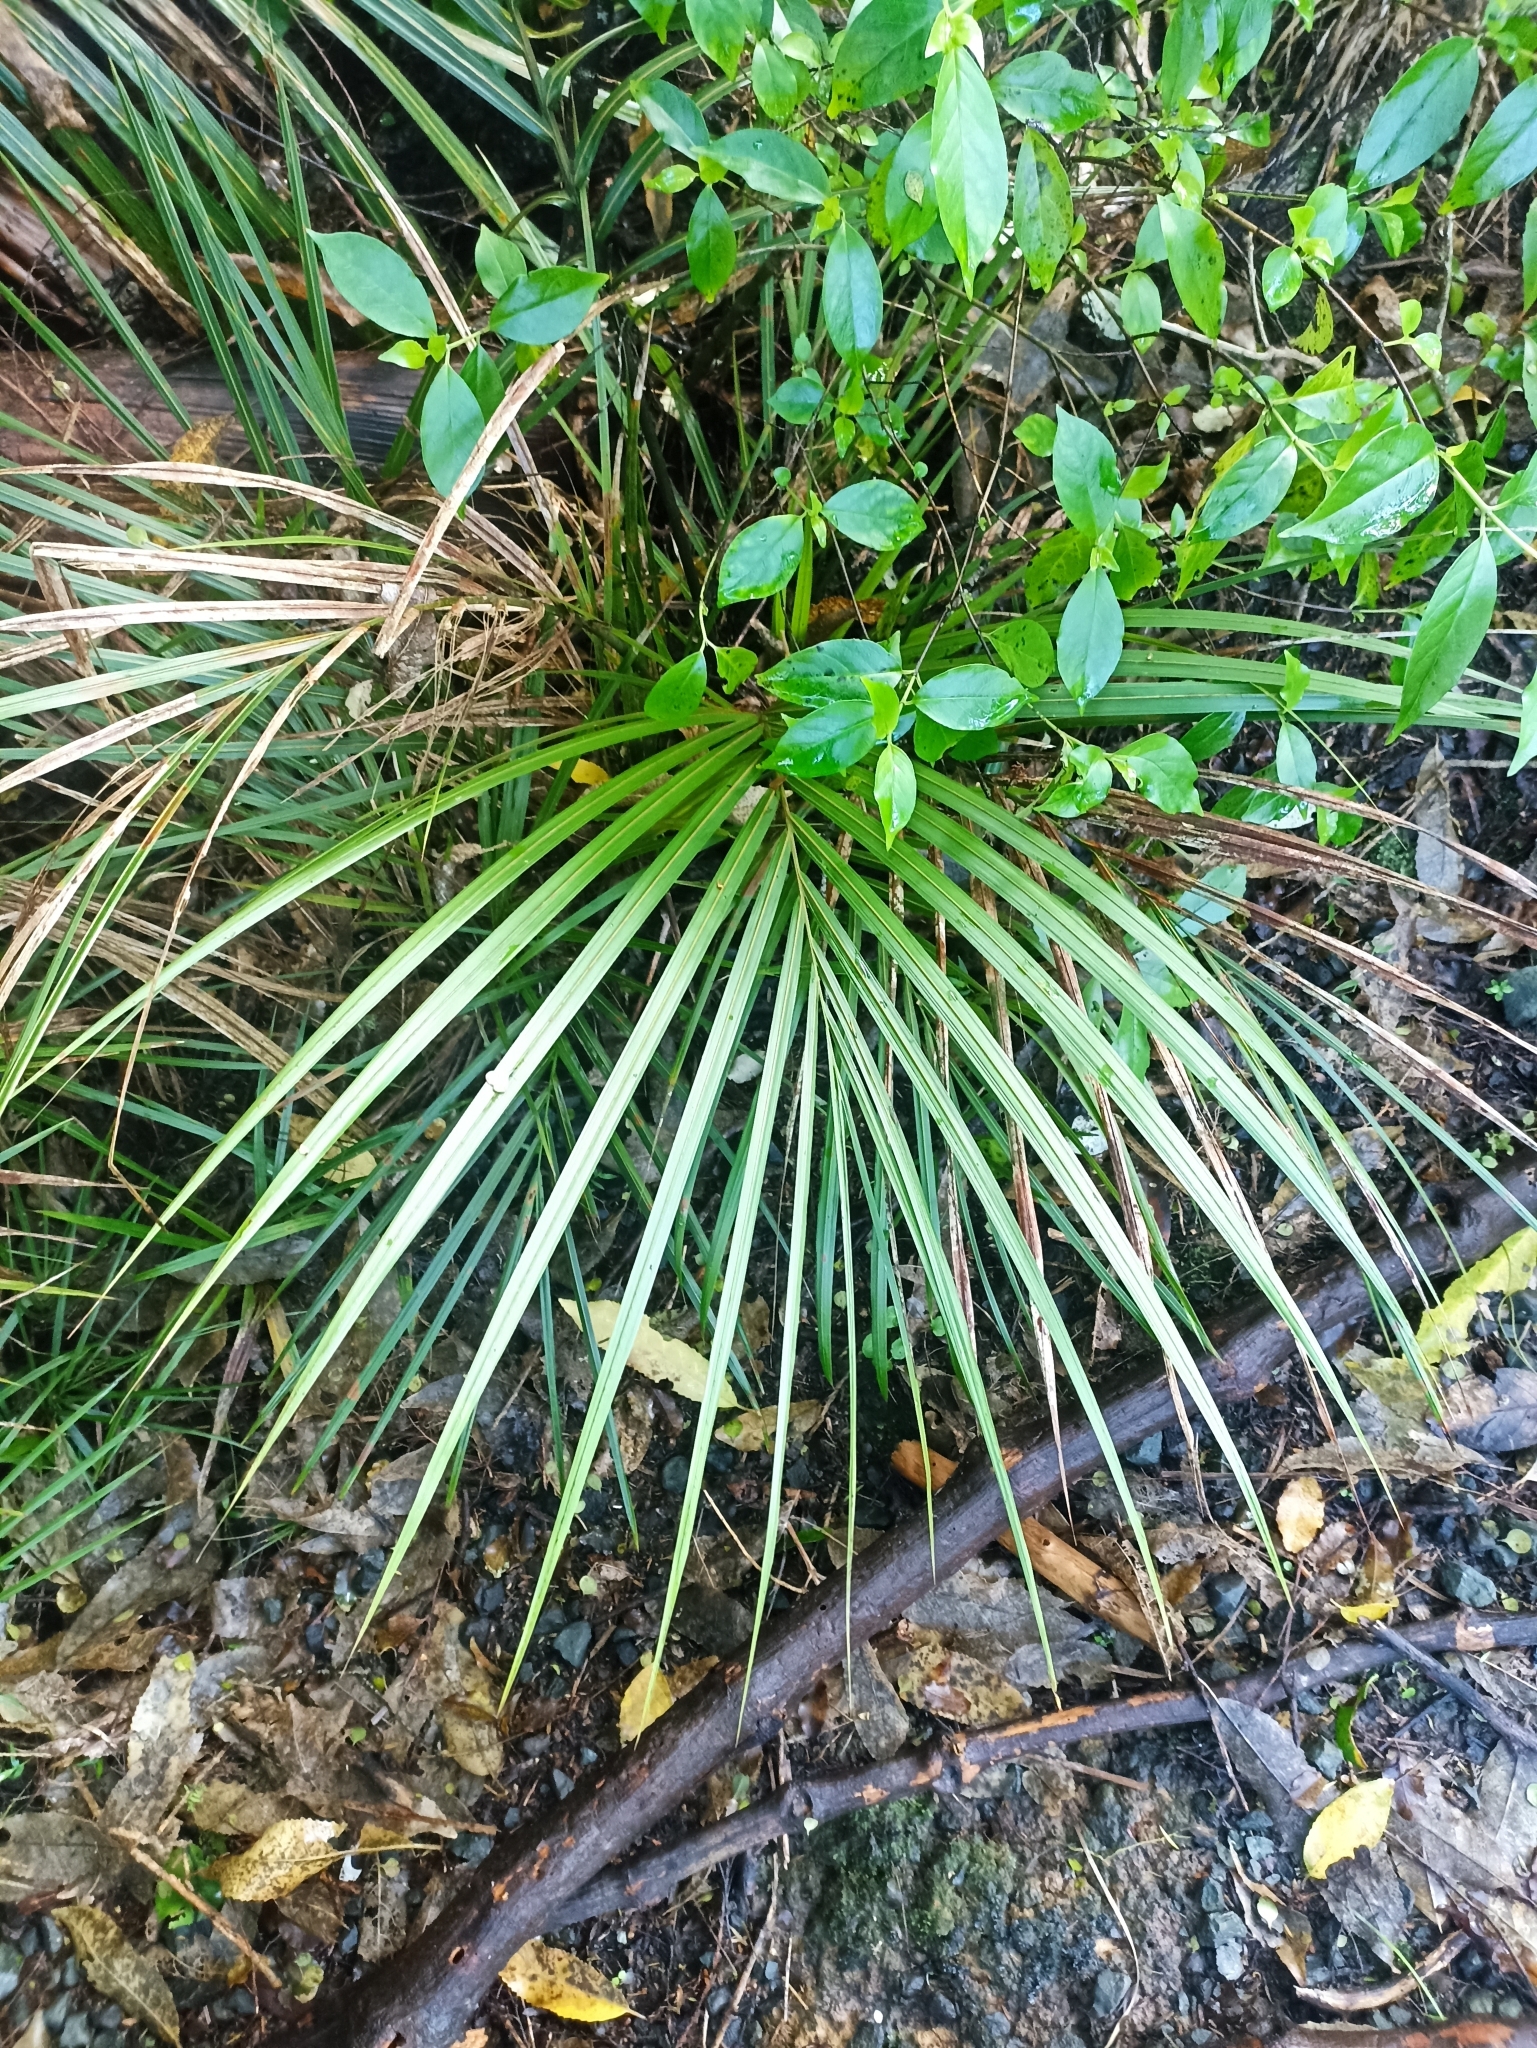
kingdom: Plantae
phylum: Tracheophyta
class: Liliopsida
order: Arecales
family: Arecaceae
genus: Rhopalostylis
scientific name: Rhopalostylis sapida
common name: Feather-duster palm
